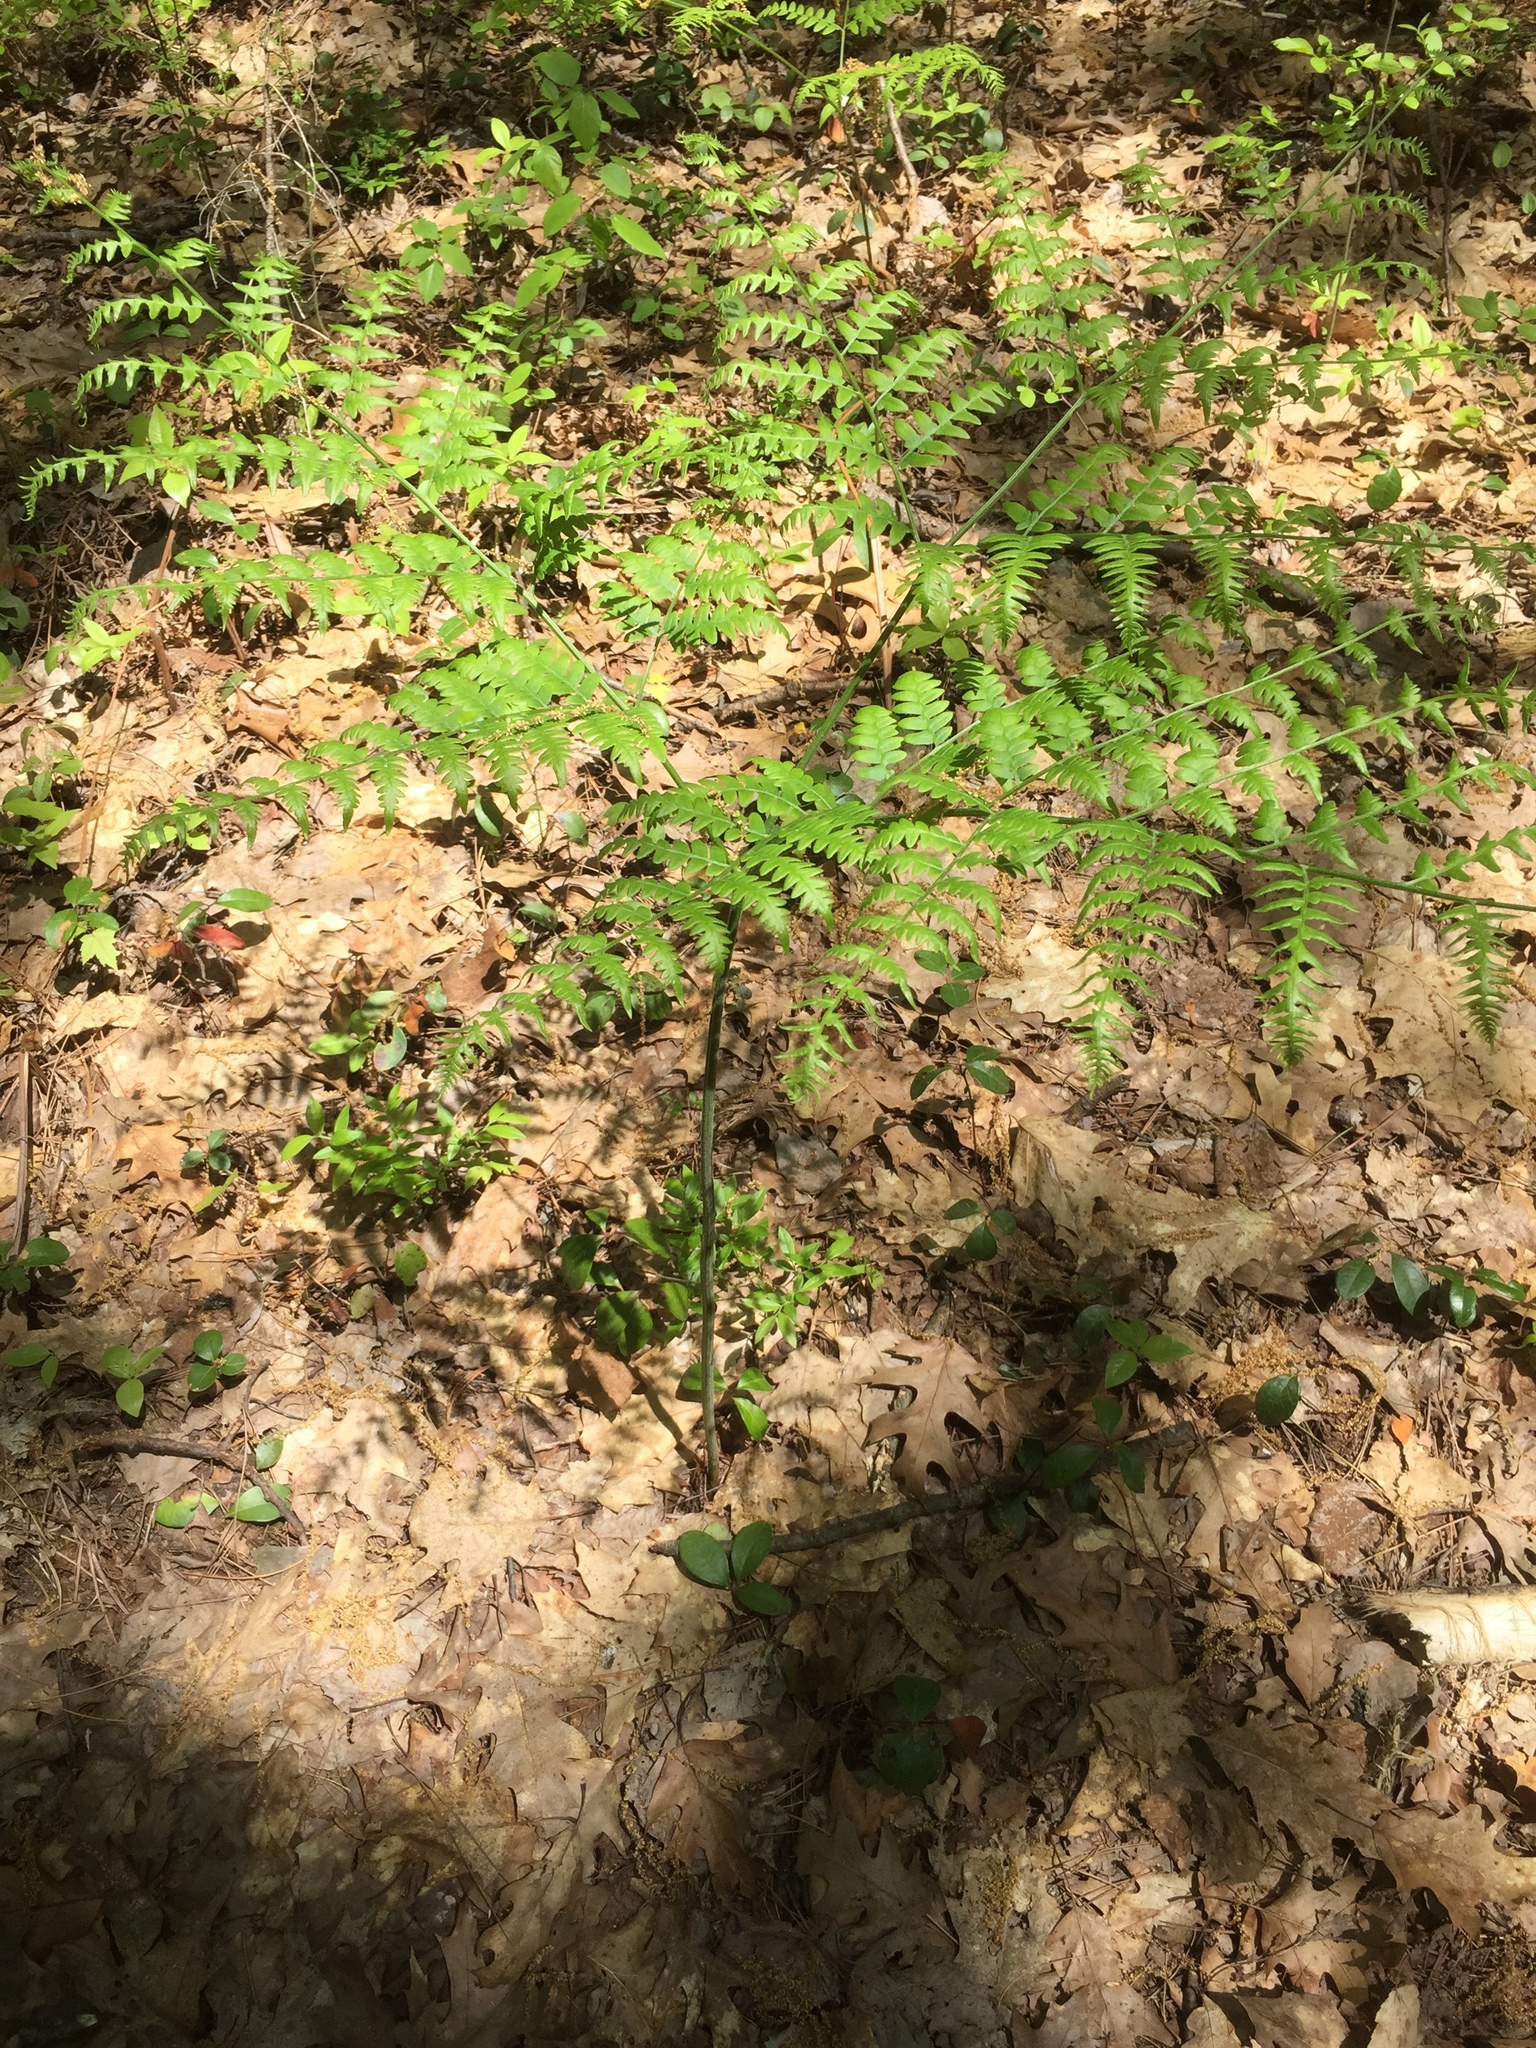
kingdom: Plantae
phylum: Tracheophyta
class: Polypodiopsida
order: Polypodiales
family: Dennstaedtiaceae
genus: Pteridium
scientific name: Pteridium aquilinum
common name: Bracken
